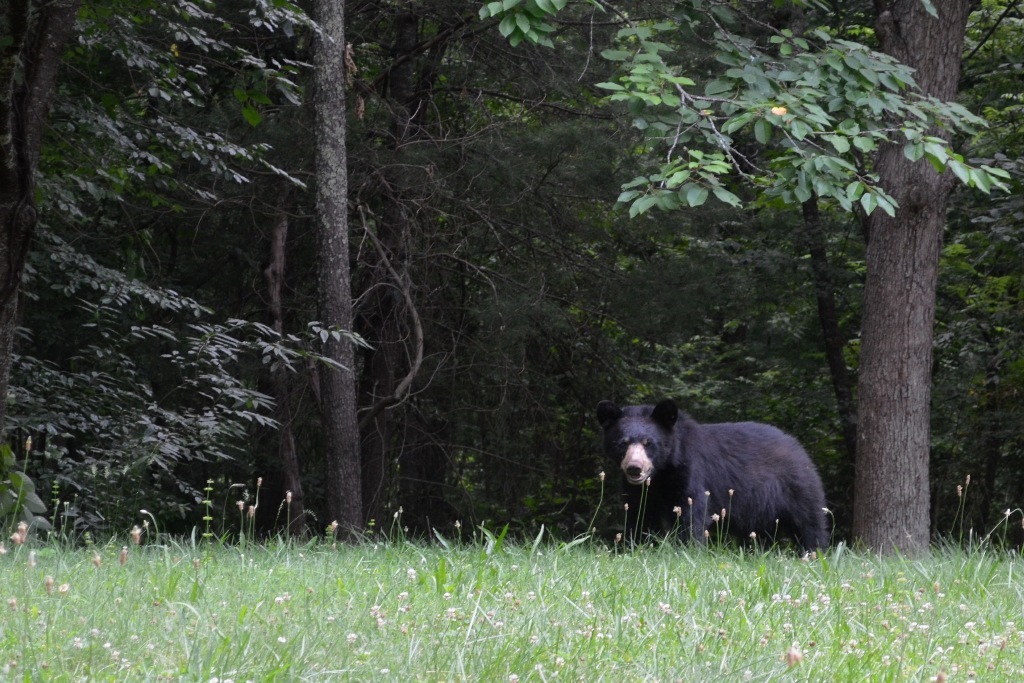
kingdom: Animalia
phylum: Chordata
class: Mammalia
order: Carnivora
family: Ursidae
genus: Ursus
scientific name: Ursus americanus
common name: American black bear
